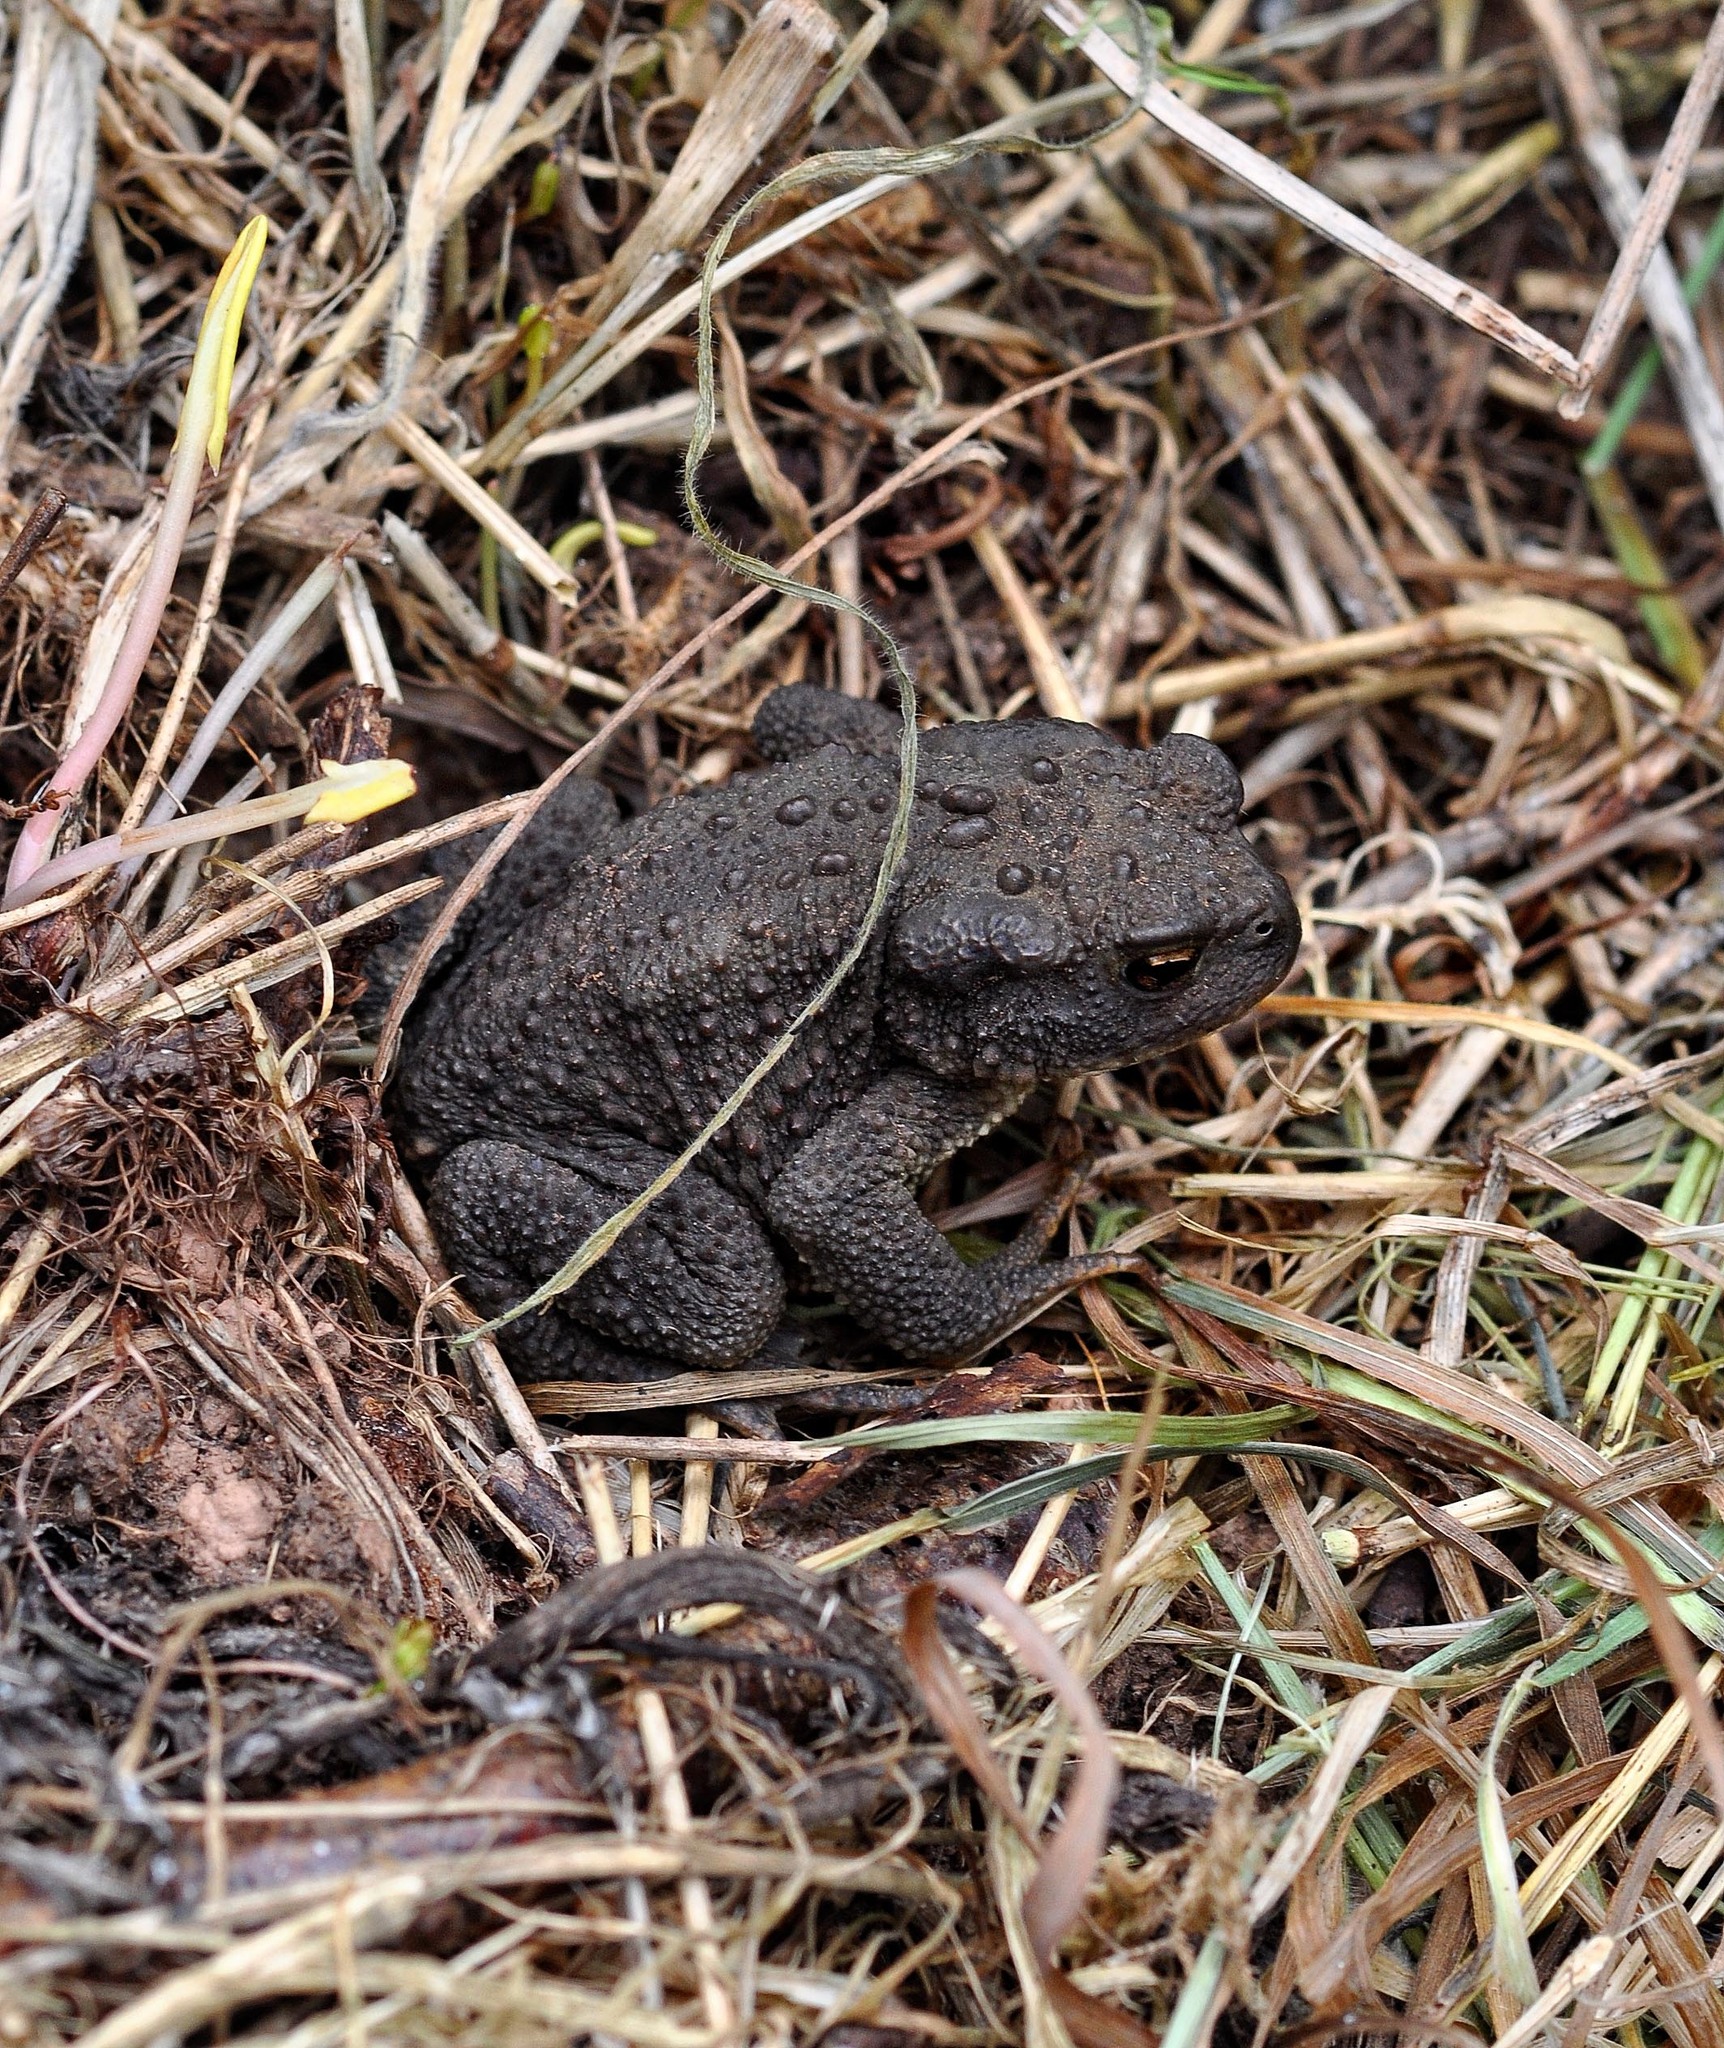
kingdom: Animalia
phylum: Chordata
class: Amphibia
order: Anura
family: Bufonidae
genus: Bufo
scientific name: Bufo bufo
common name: Common toad
